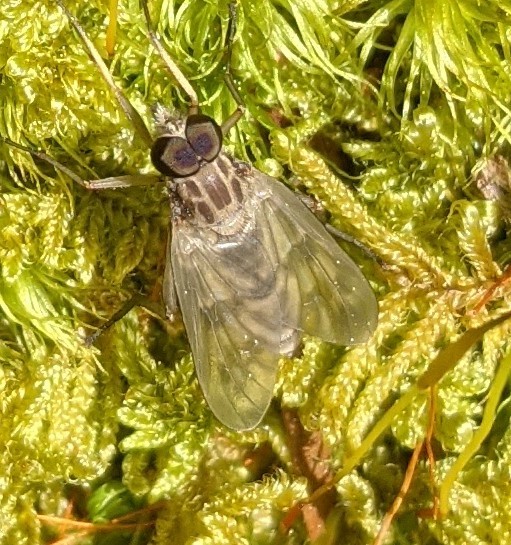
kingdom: Animalia
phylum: Arthropoda
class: Insecta
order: Diptera
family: Rhagionidae
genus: Rhagio
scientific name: Rhagio mystaceus
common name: Common snipe fly
